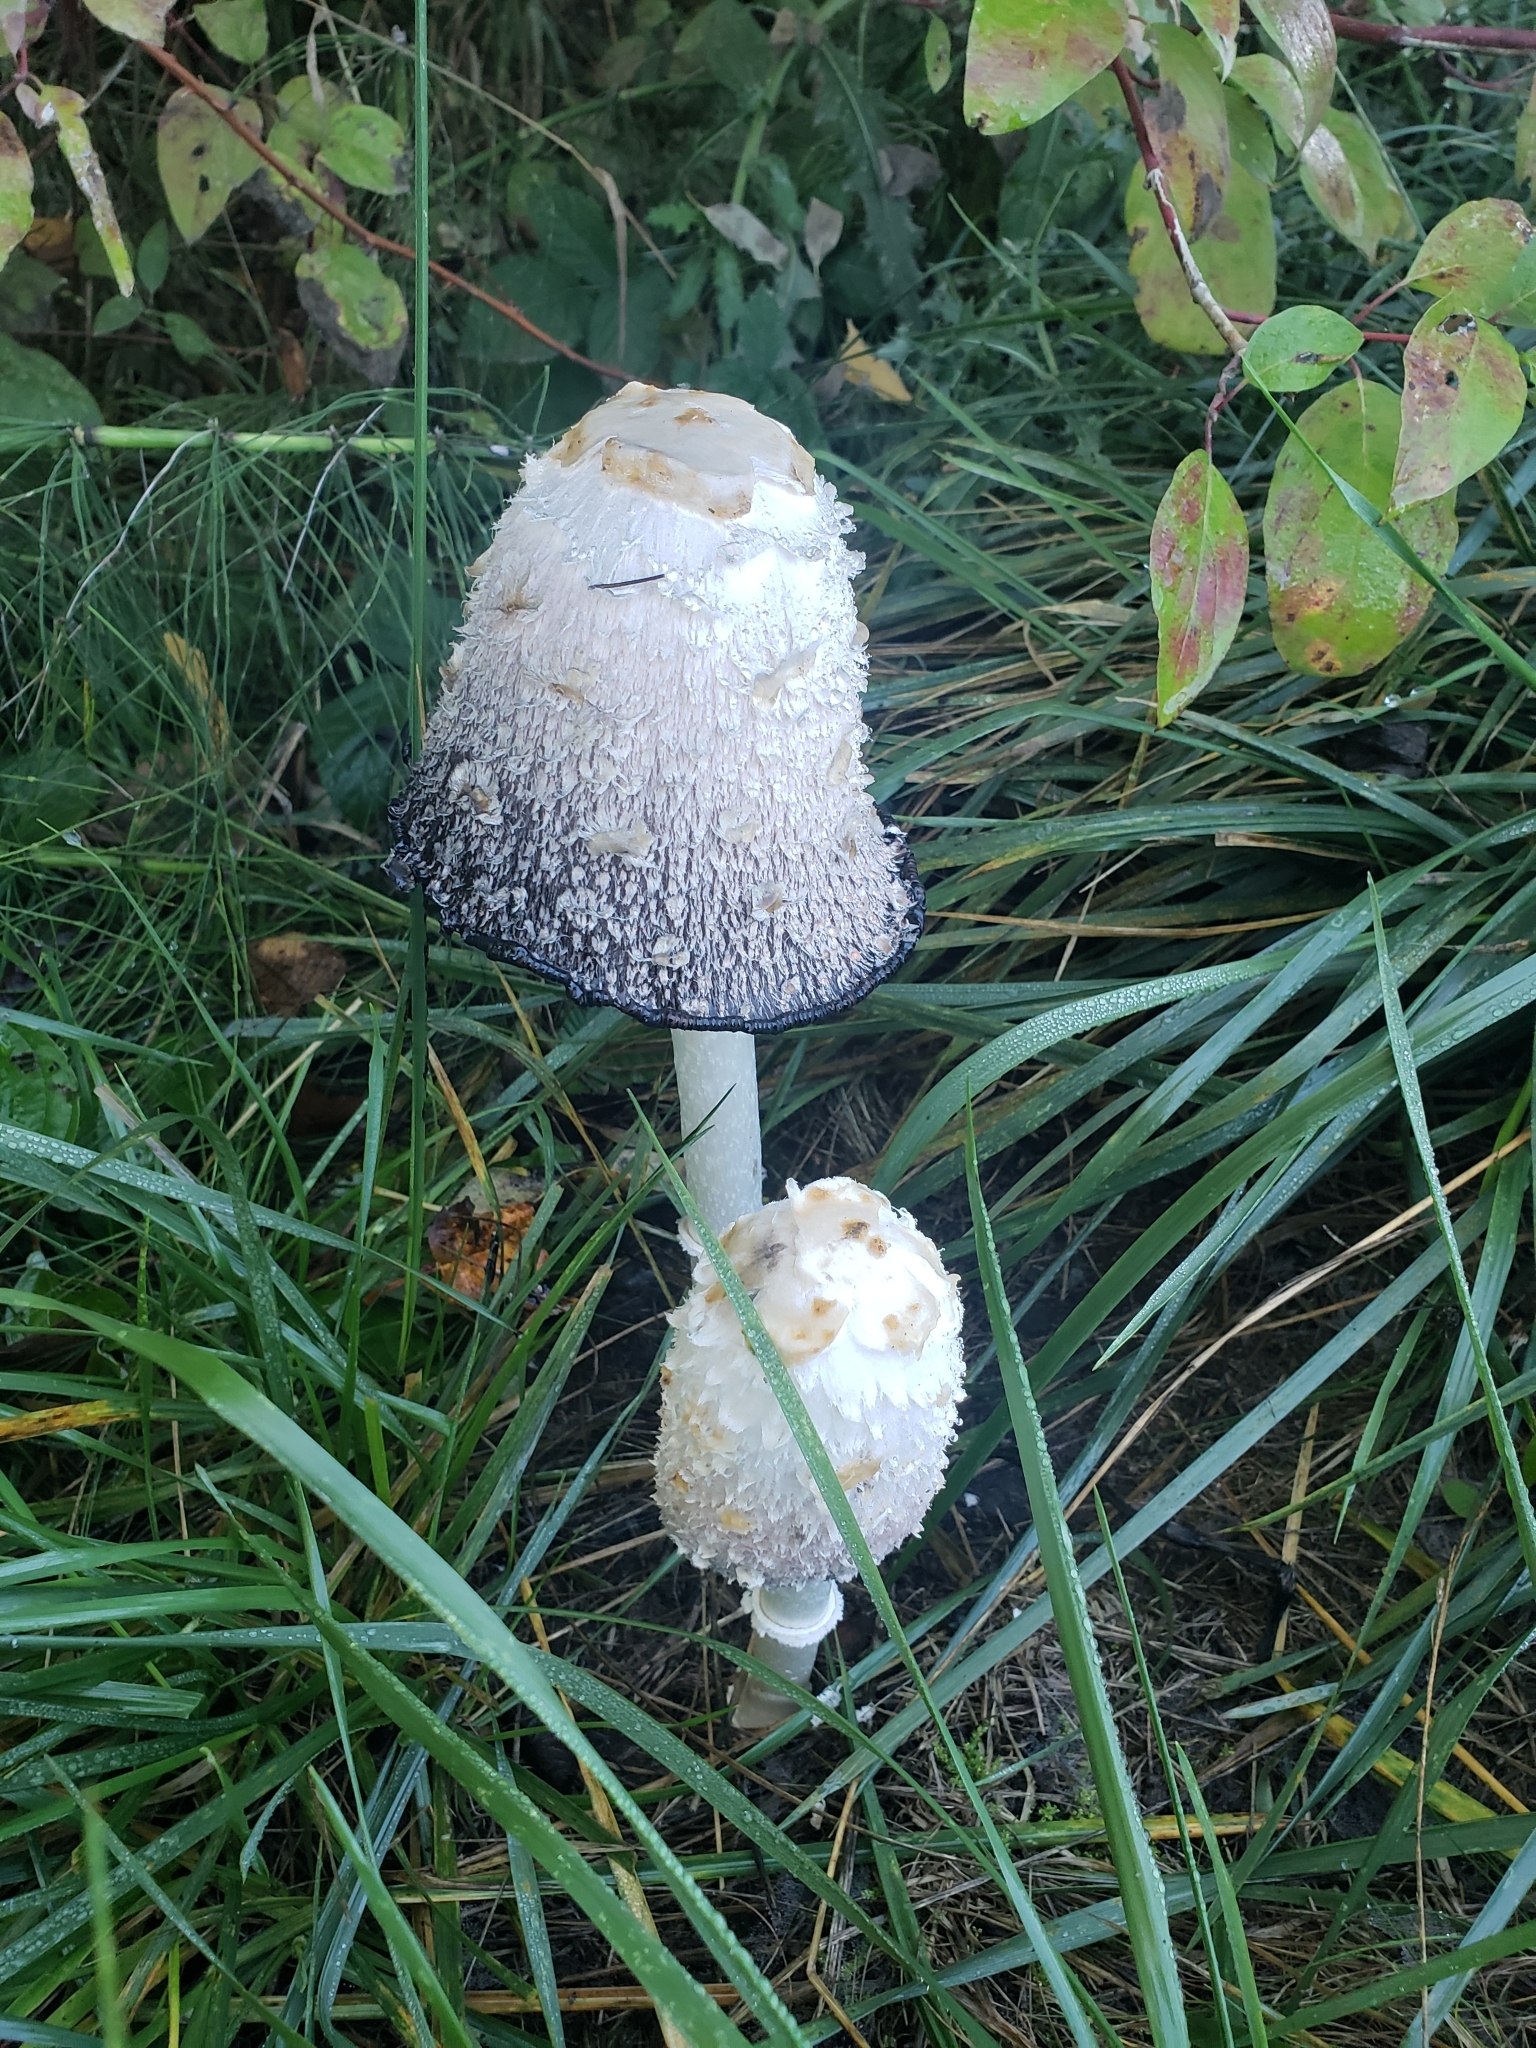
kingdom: Fungi
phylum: Basidiomycota
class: Agaricomycetes
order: Agaricales
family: Agaricaceae
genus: Coprinus
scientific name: Coprinus comatus
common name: Lawyer's wig
